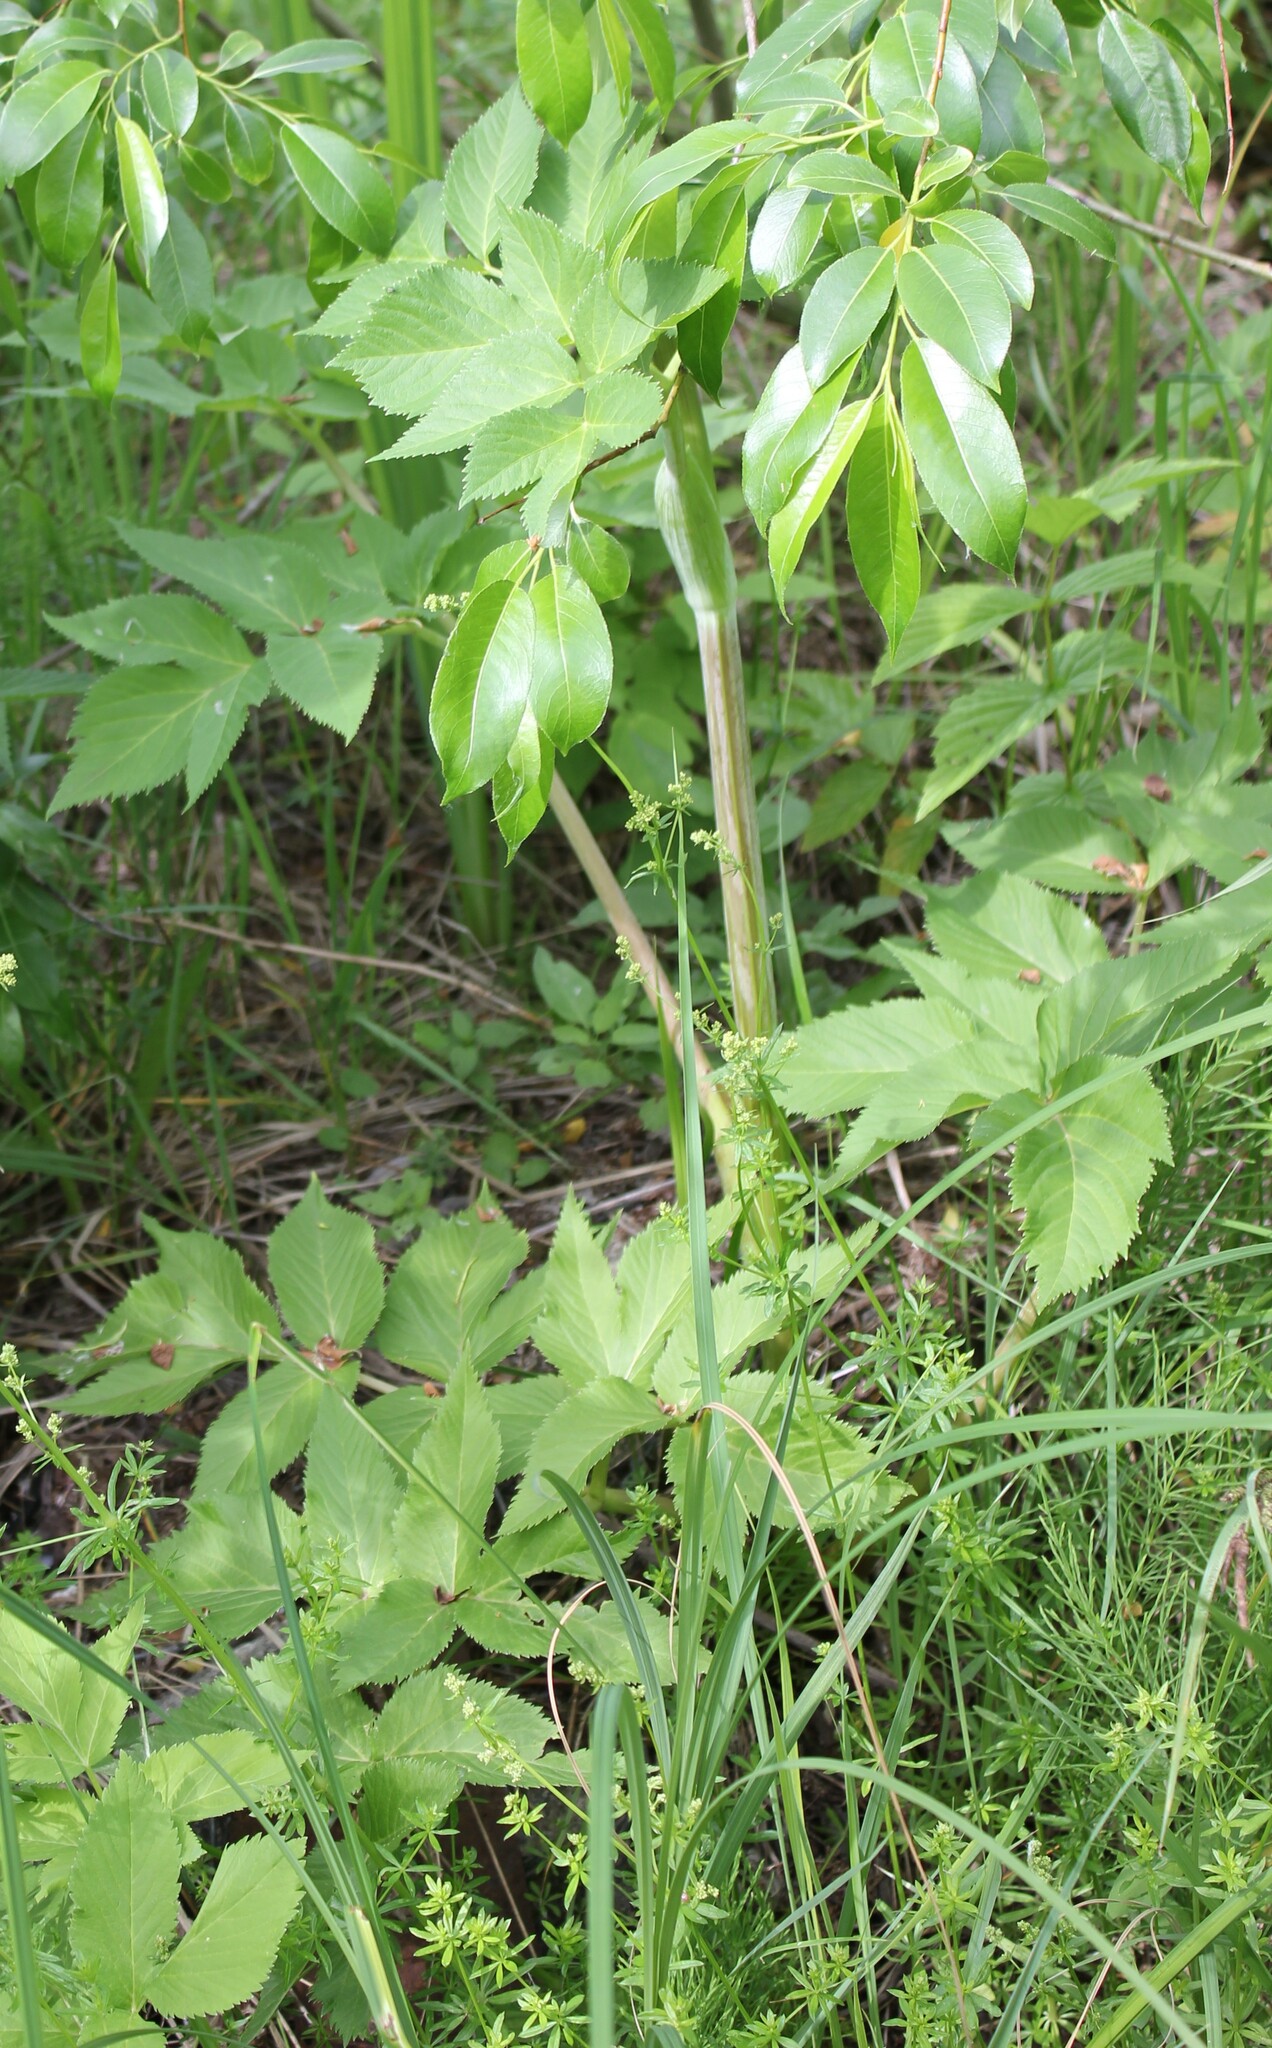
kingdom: Plantae
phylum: Tracheophyta
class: Magnoliopsida
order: Apiales
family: Apiaceae
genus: Angelica
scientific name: Angelica archangelica
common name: Garden angelica
